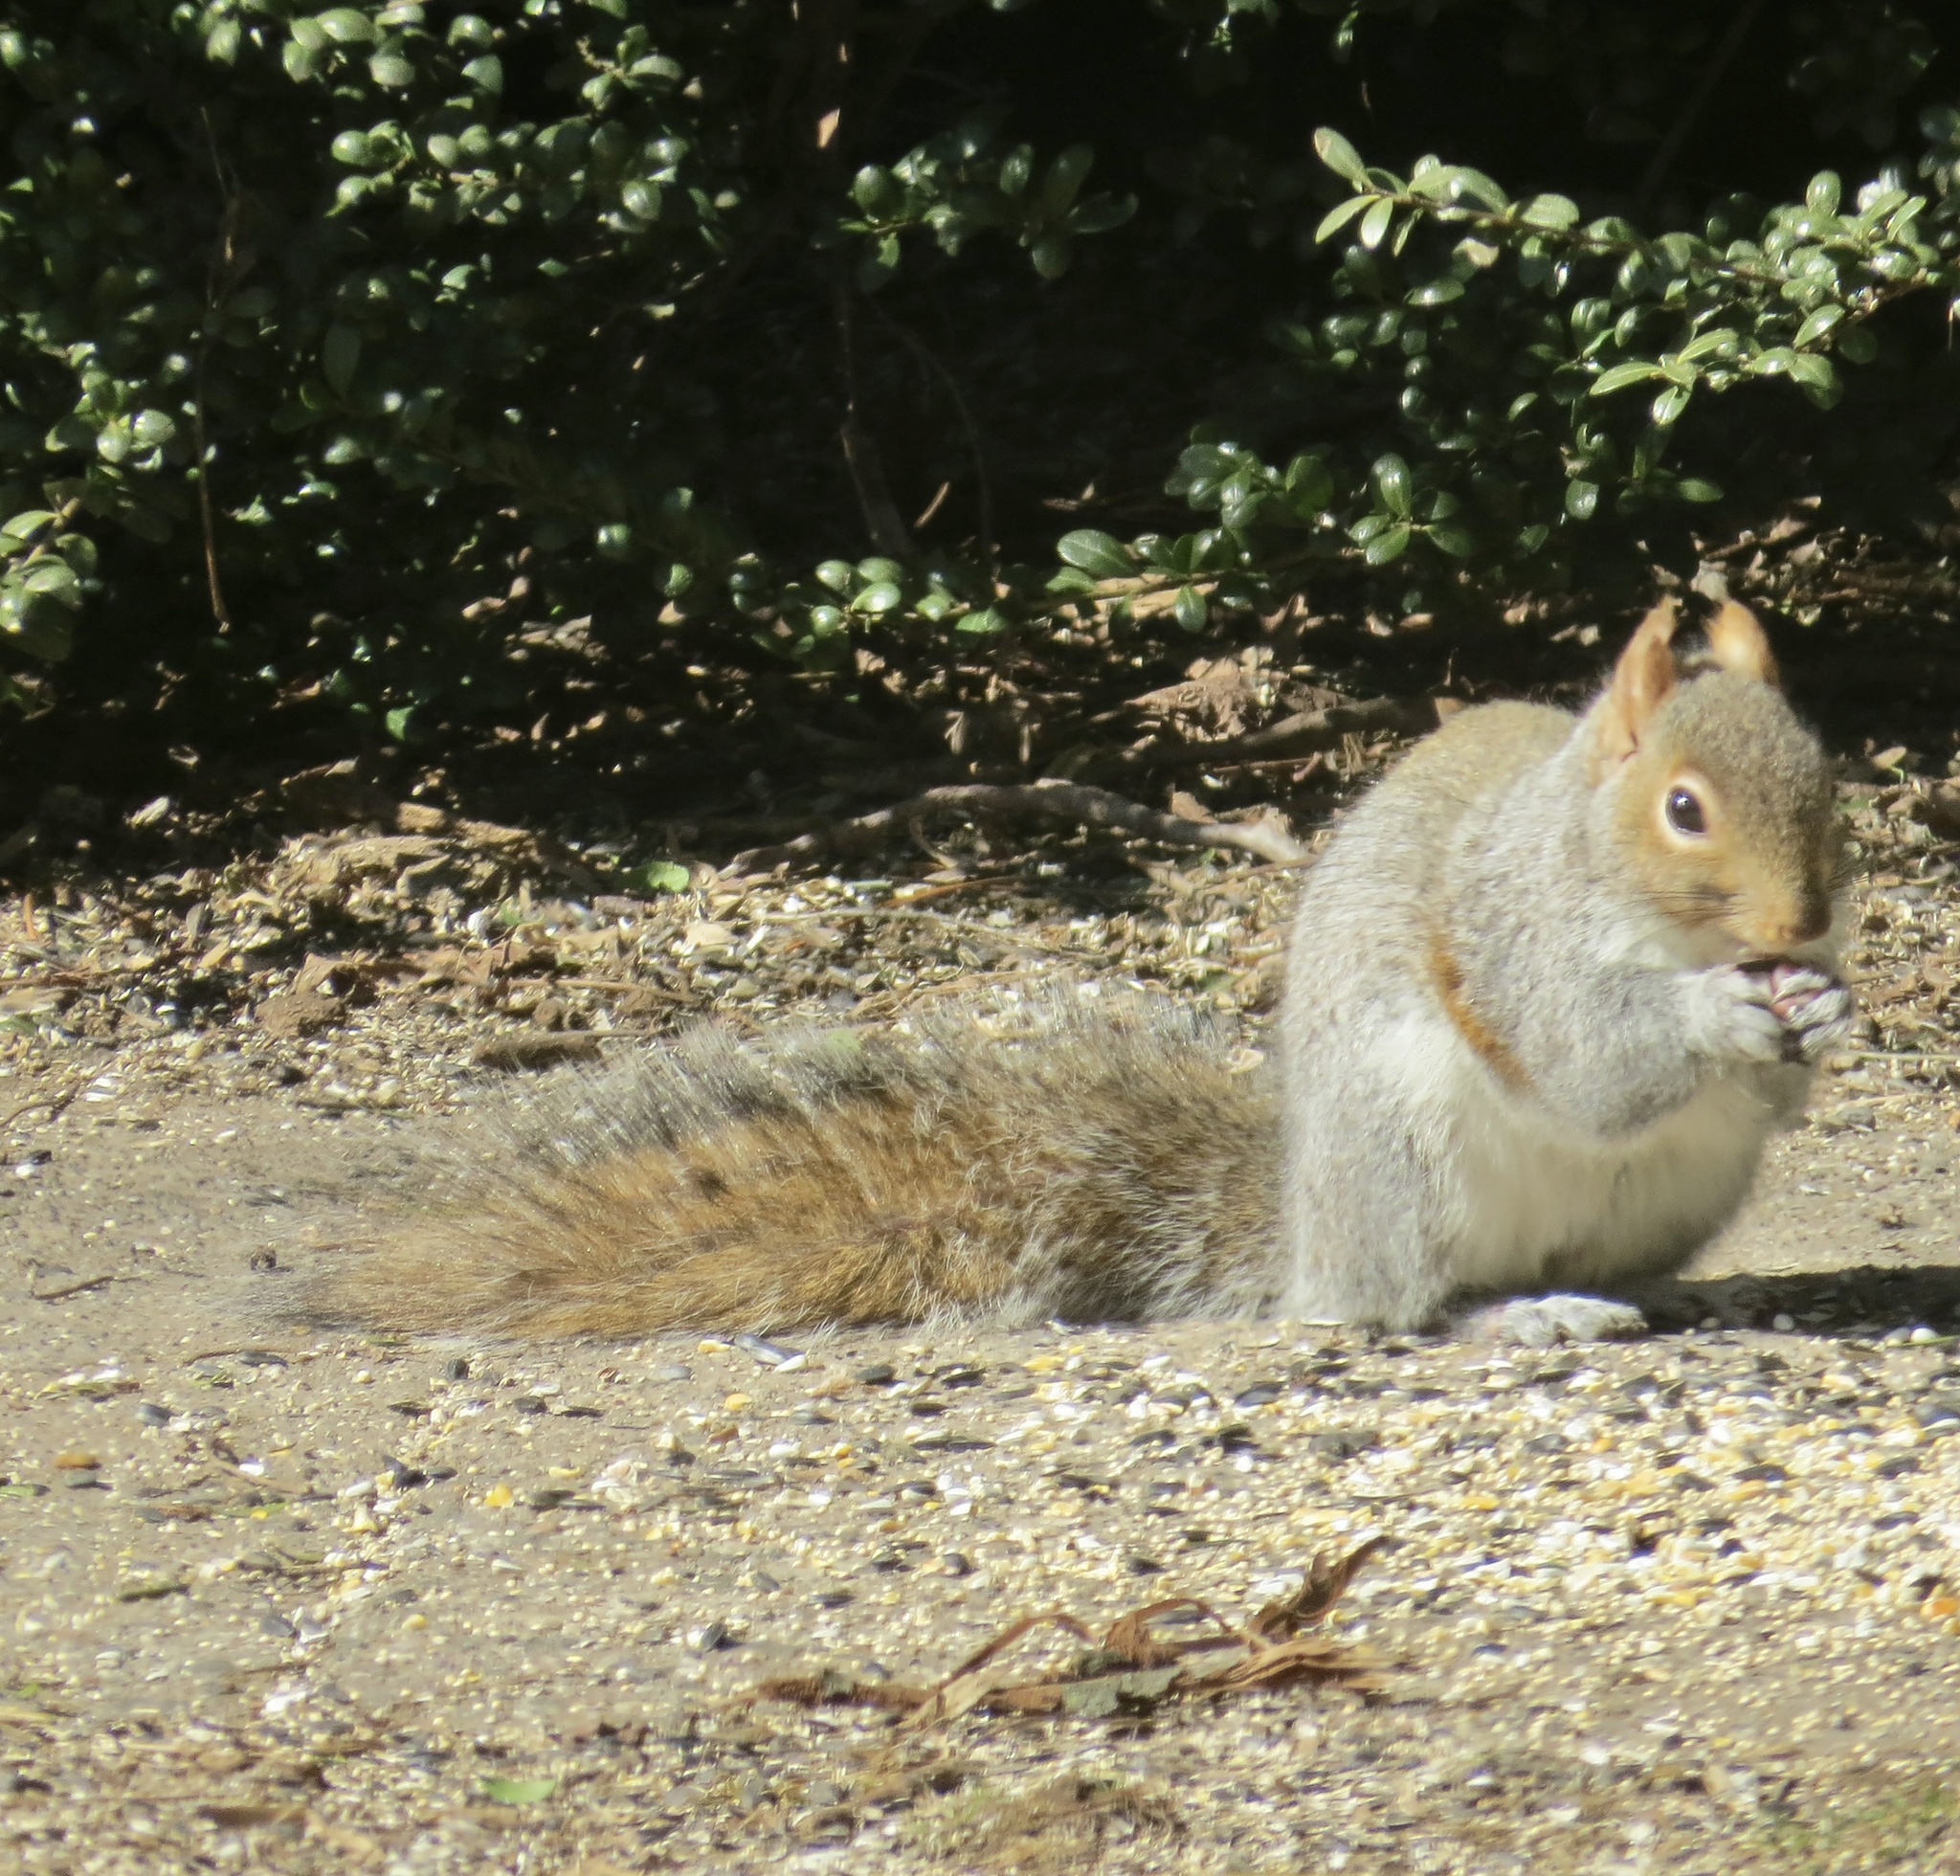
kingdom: Animalia
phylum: Chordata
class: Mammalia
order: Rodentia
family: Sciuridae
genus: Sciurus
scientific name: Sciurus carolinensis
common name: Eastern gray squirrel
